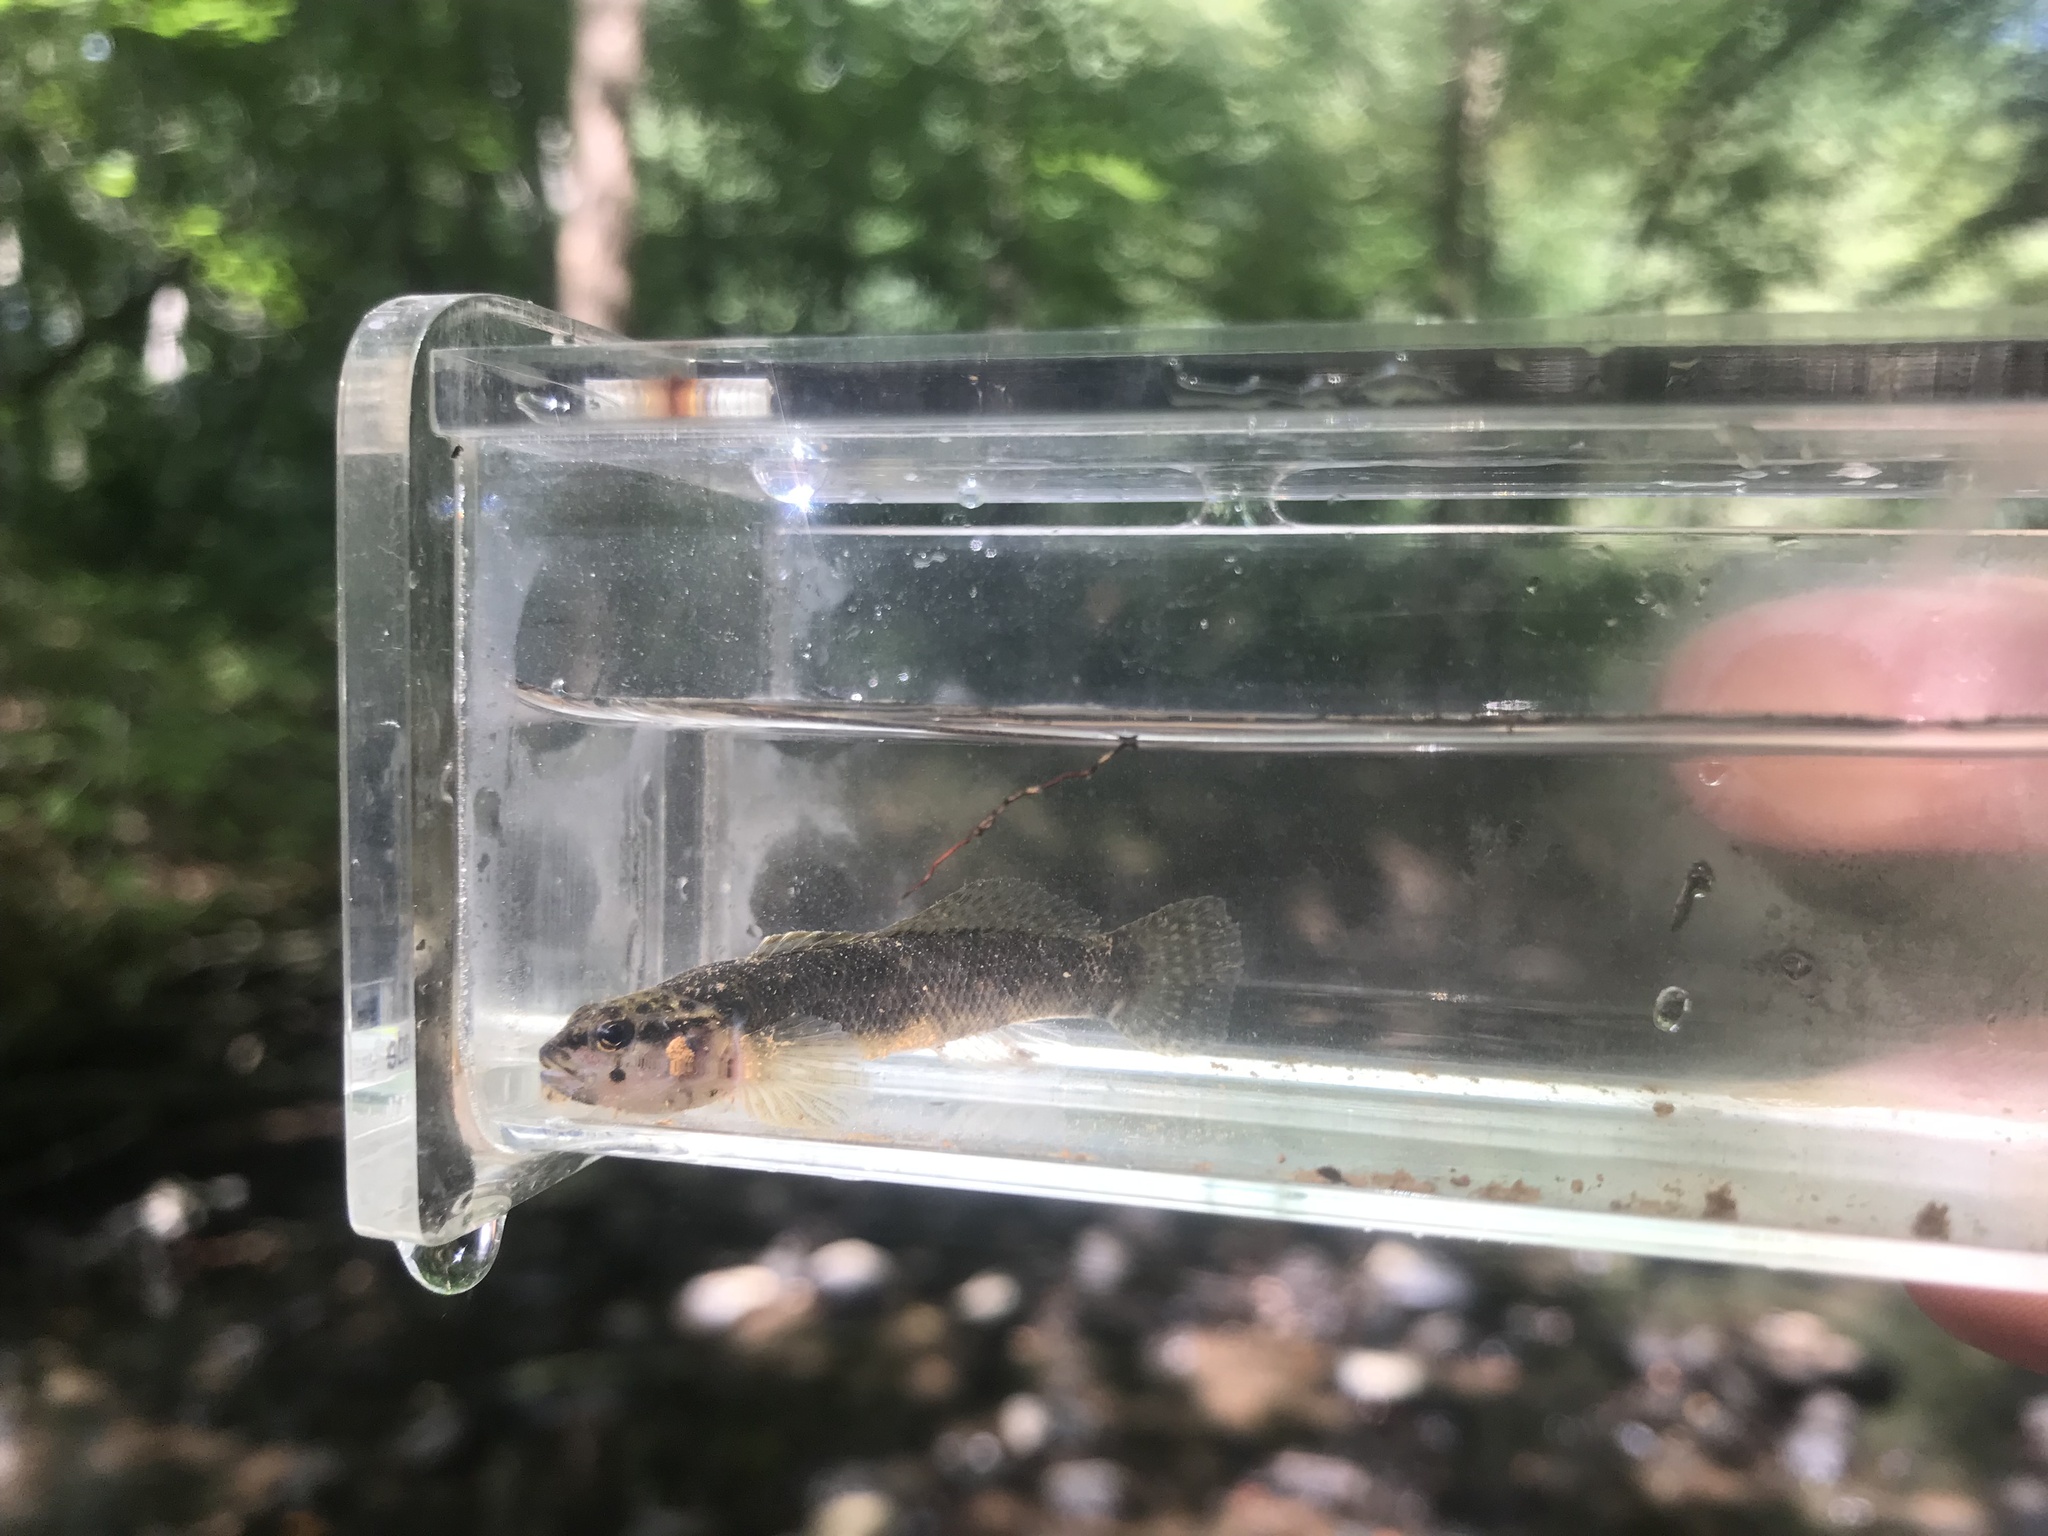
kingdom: Animalia
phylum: Chordata
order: Perciformes
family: Percidae
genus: Etheostoma
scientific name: Etheostoma flabellare
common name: Fantail darter
